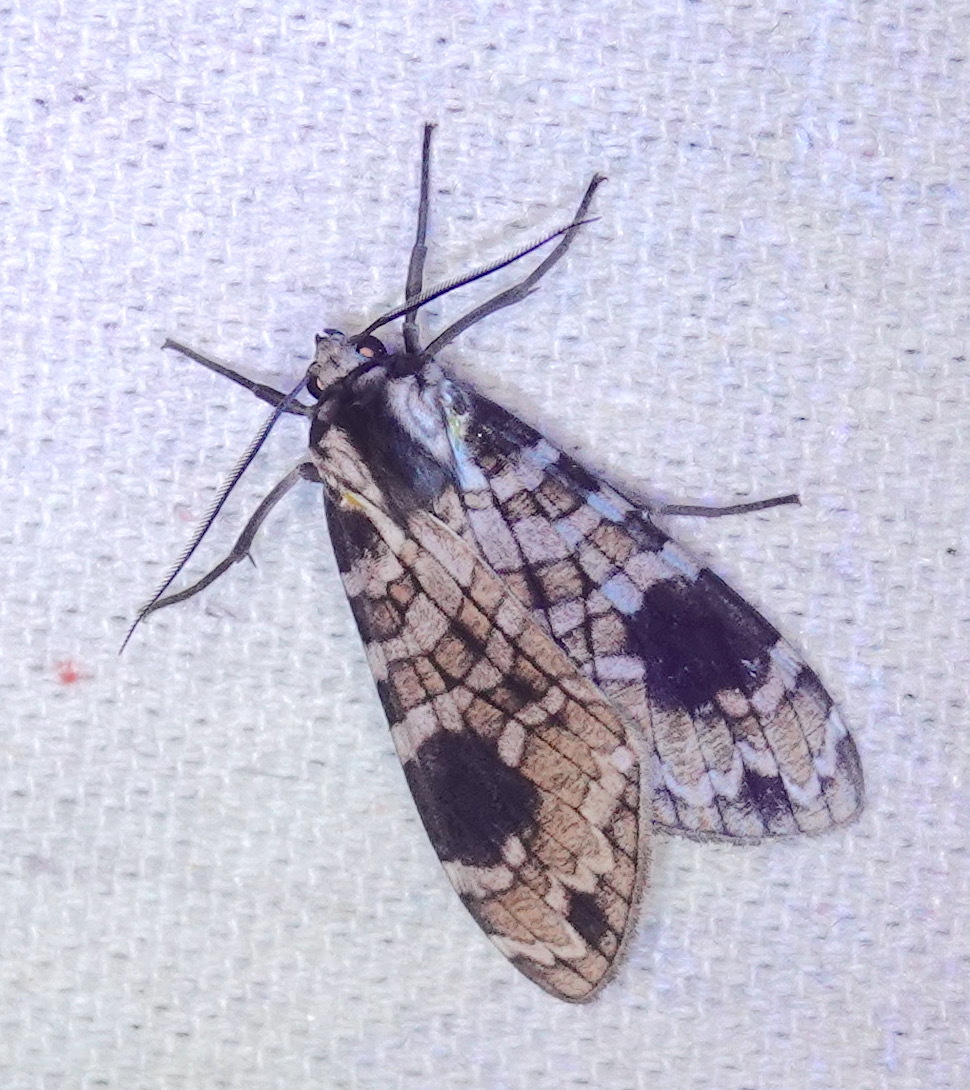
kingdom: Animalia
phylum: Arthropoda
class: Insecta
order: Lepidoptera
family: Erebidae
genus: Elysius
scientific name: Elysius melanoplaga
